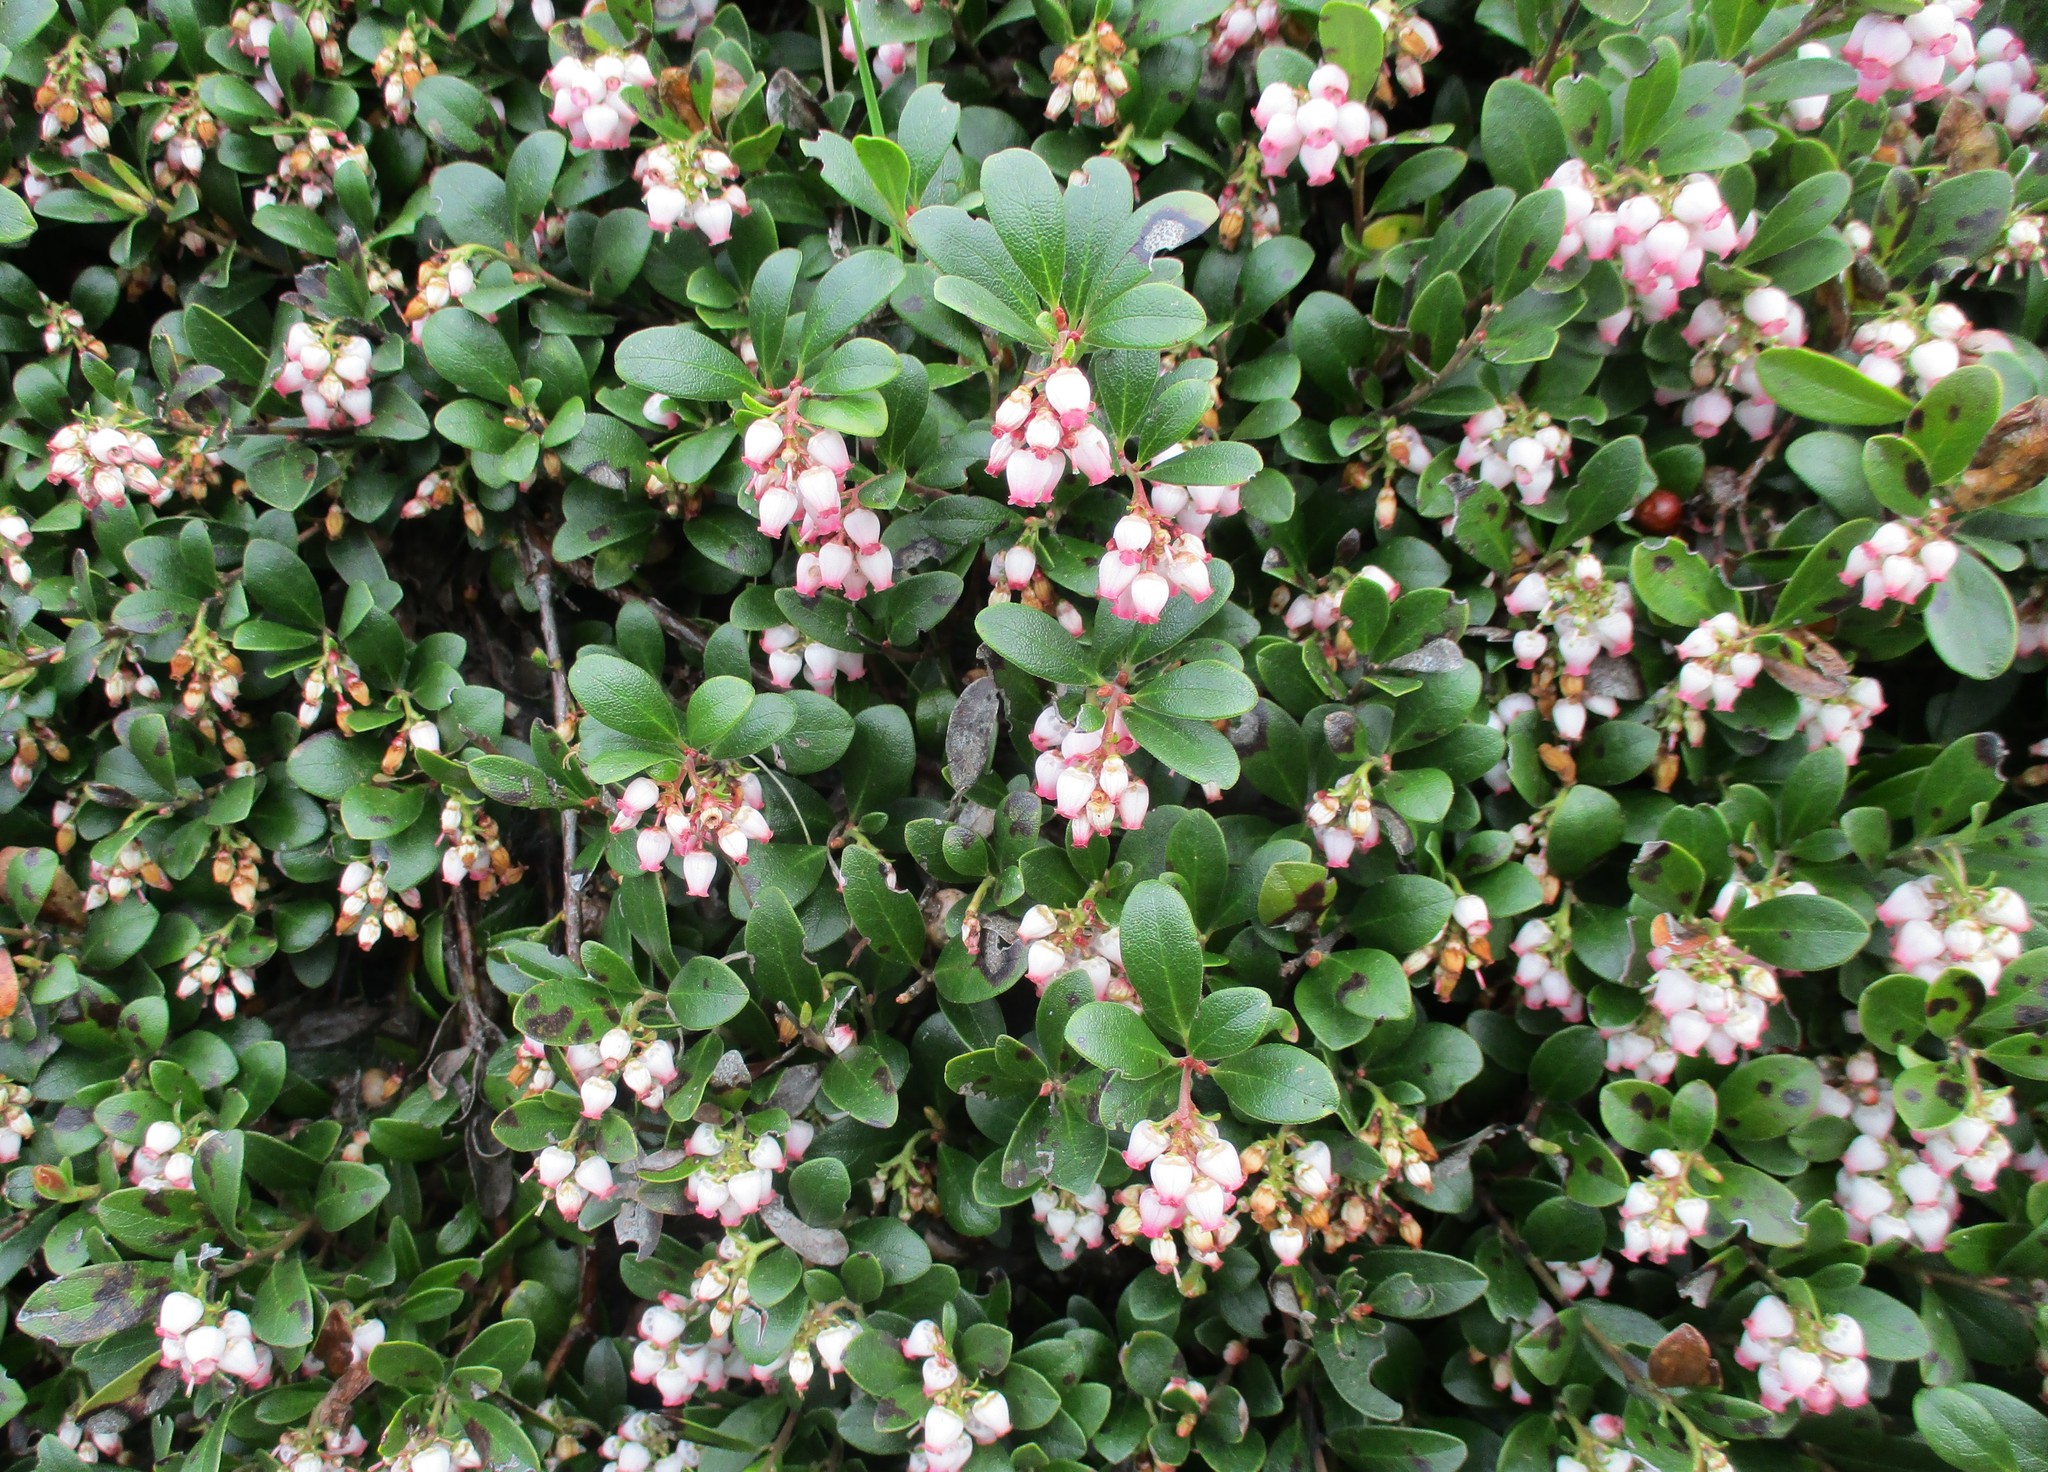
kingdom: Plantae
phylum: Tracheophyta
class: Magnoliopsida
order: Ericales
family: Ericaceae
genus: Arctostaphylos
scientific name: Arctostaphylos uva-ursi
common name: Bearberry
